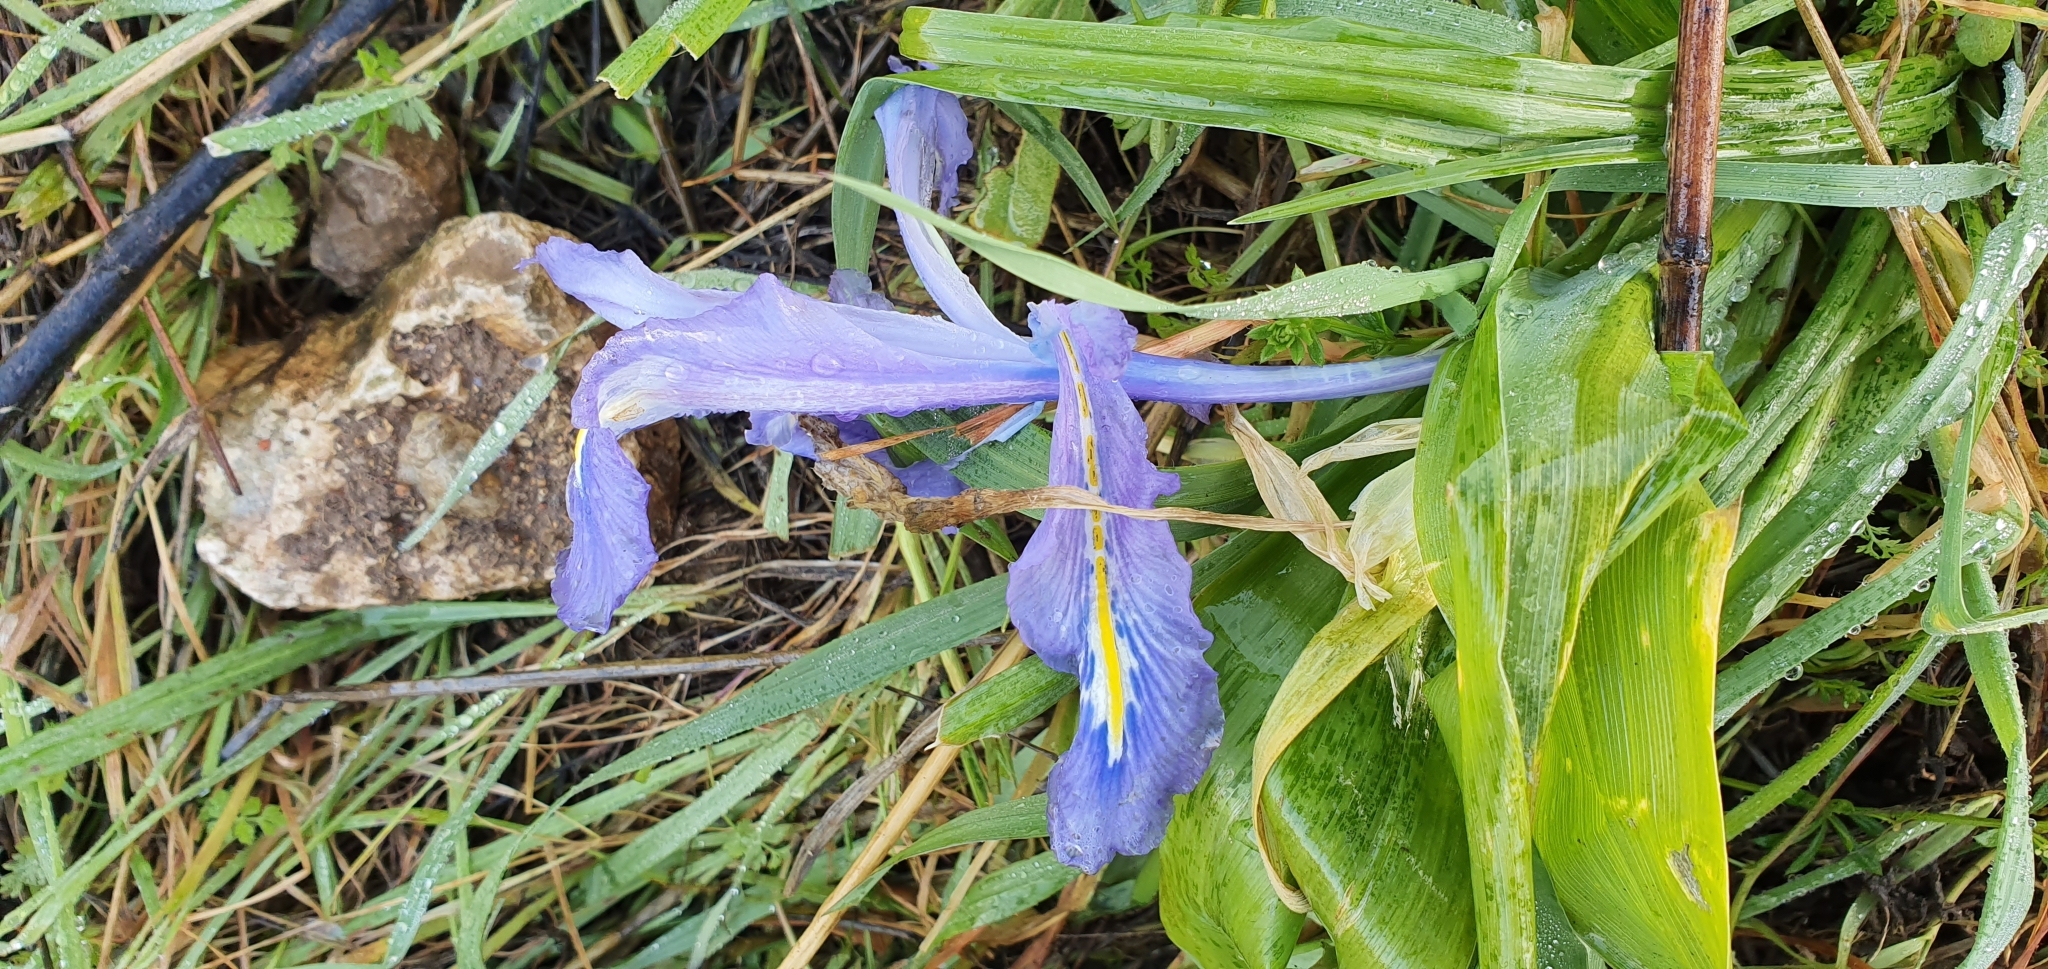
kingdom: Plantae
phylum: Tracheophyta
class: Liliopsida
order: Asparagales
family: Iridaceae
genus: Iris
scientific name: Iris planifolia
